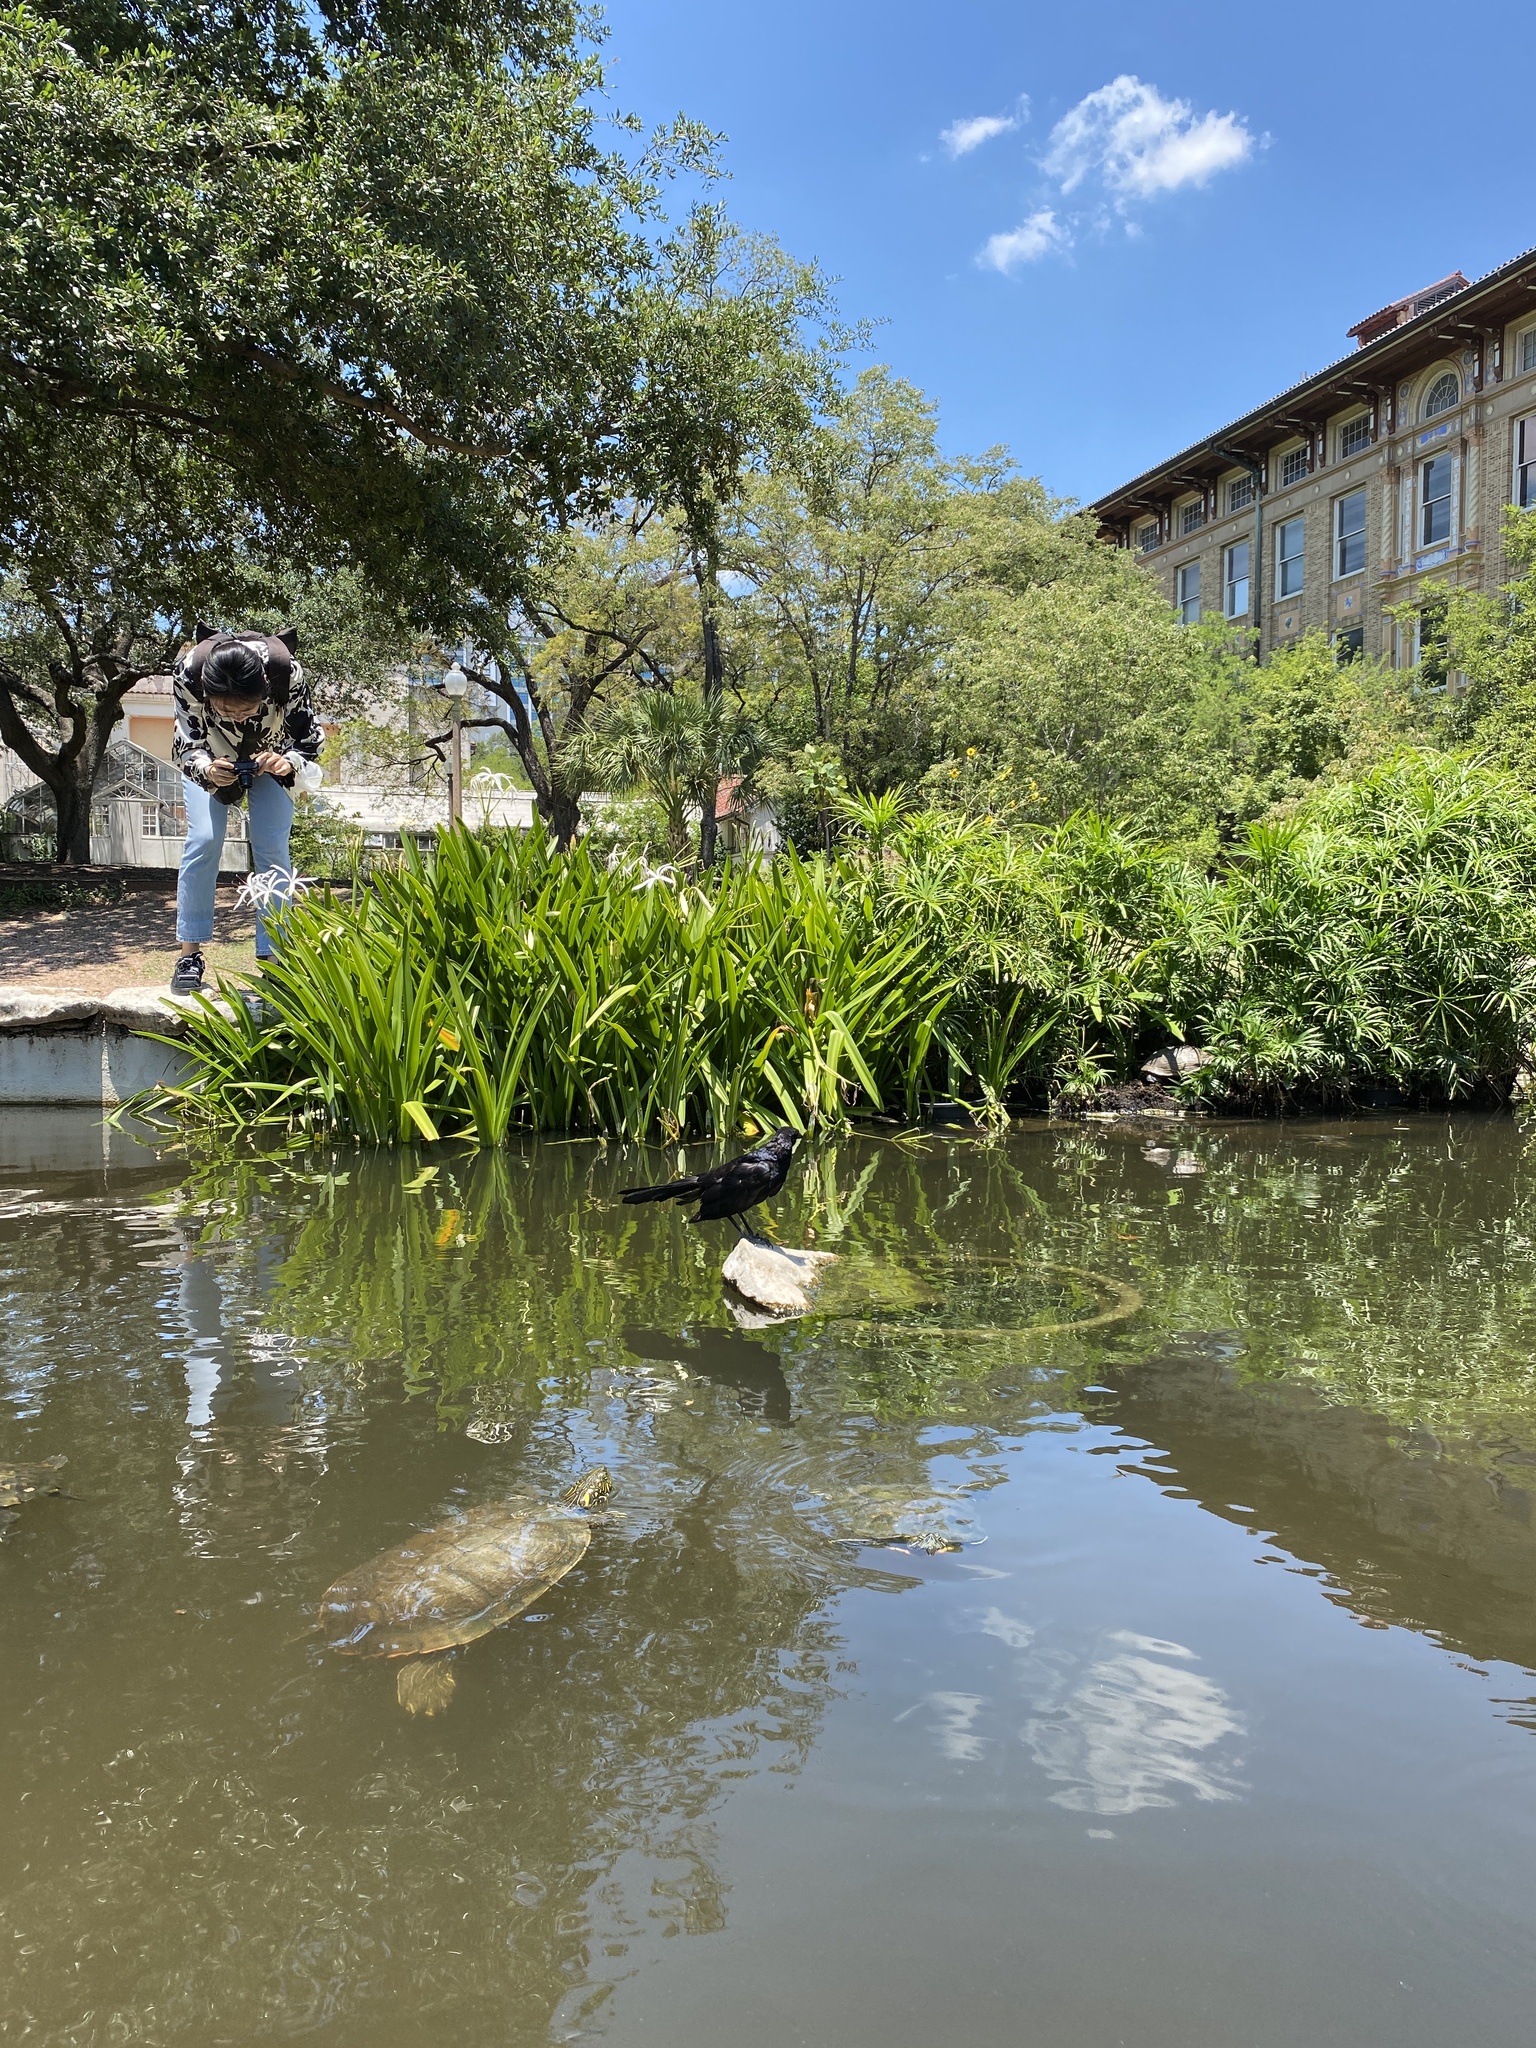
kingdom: Animalia
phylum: Chordata
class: Aves
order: Passeriformes
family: Icteridae
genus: Quiscalus
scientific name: Quiscalus mexicanus
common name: Great-tailed grackle
